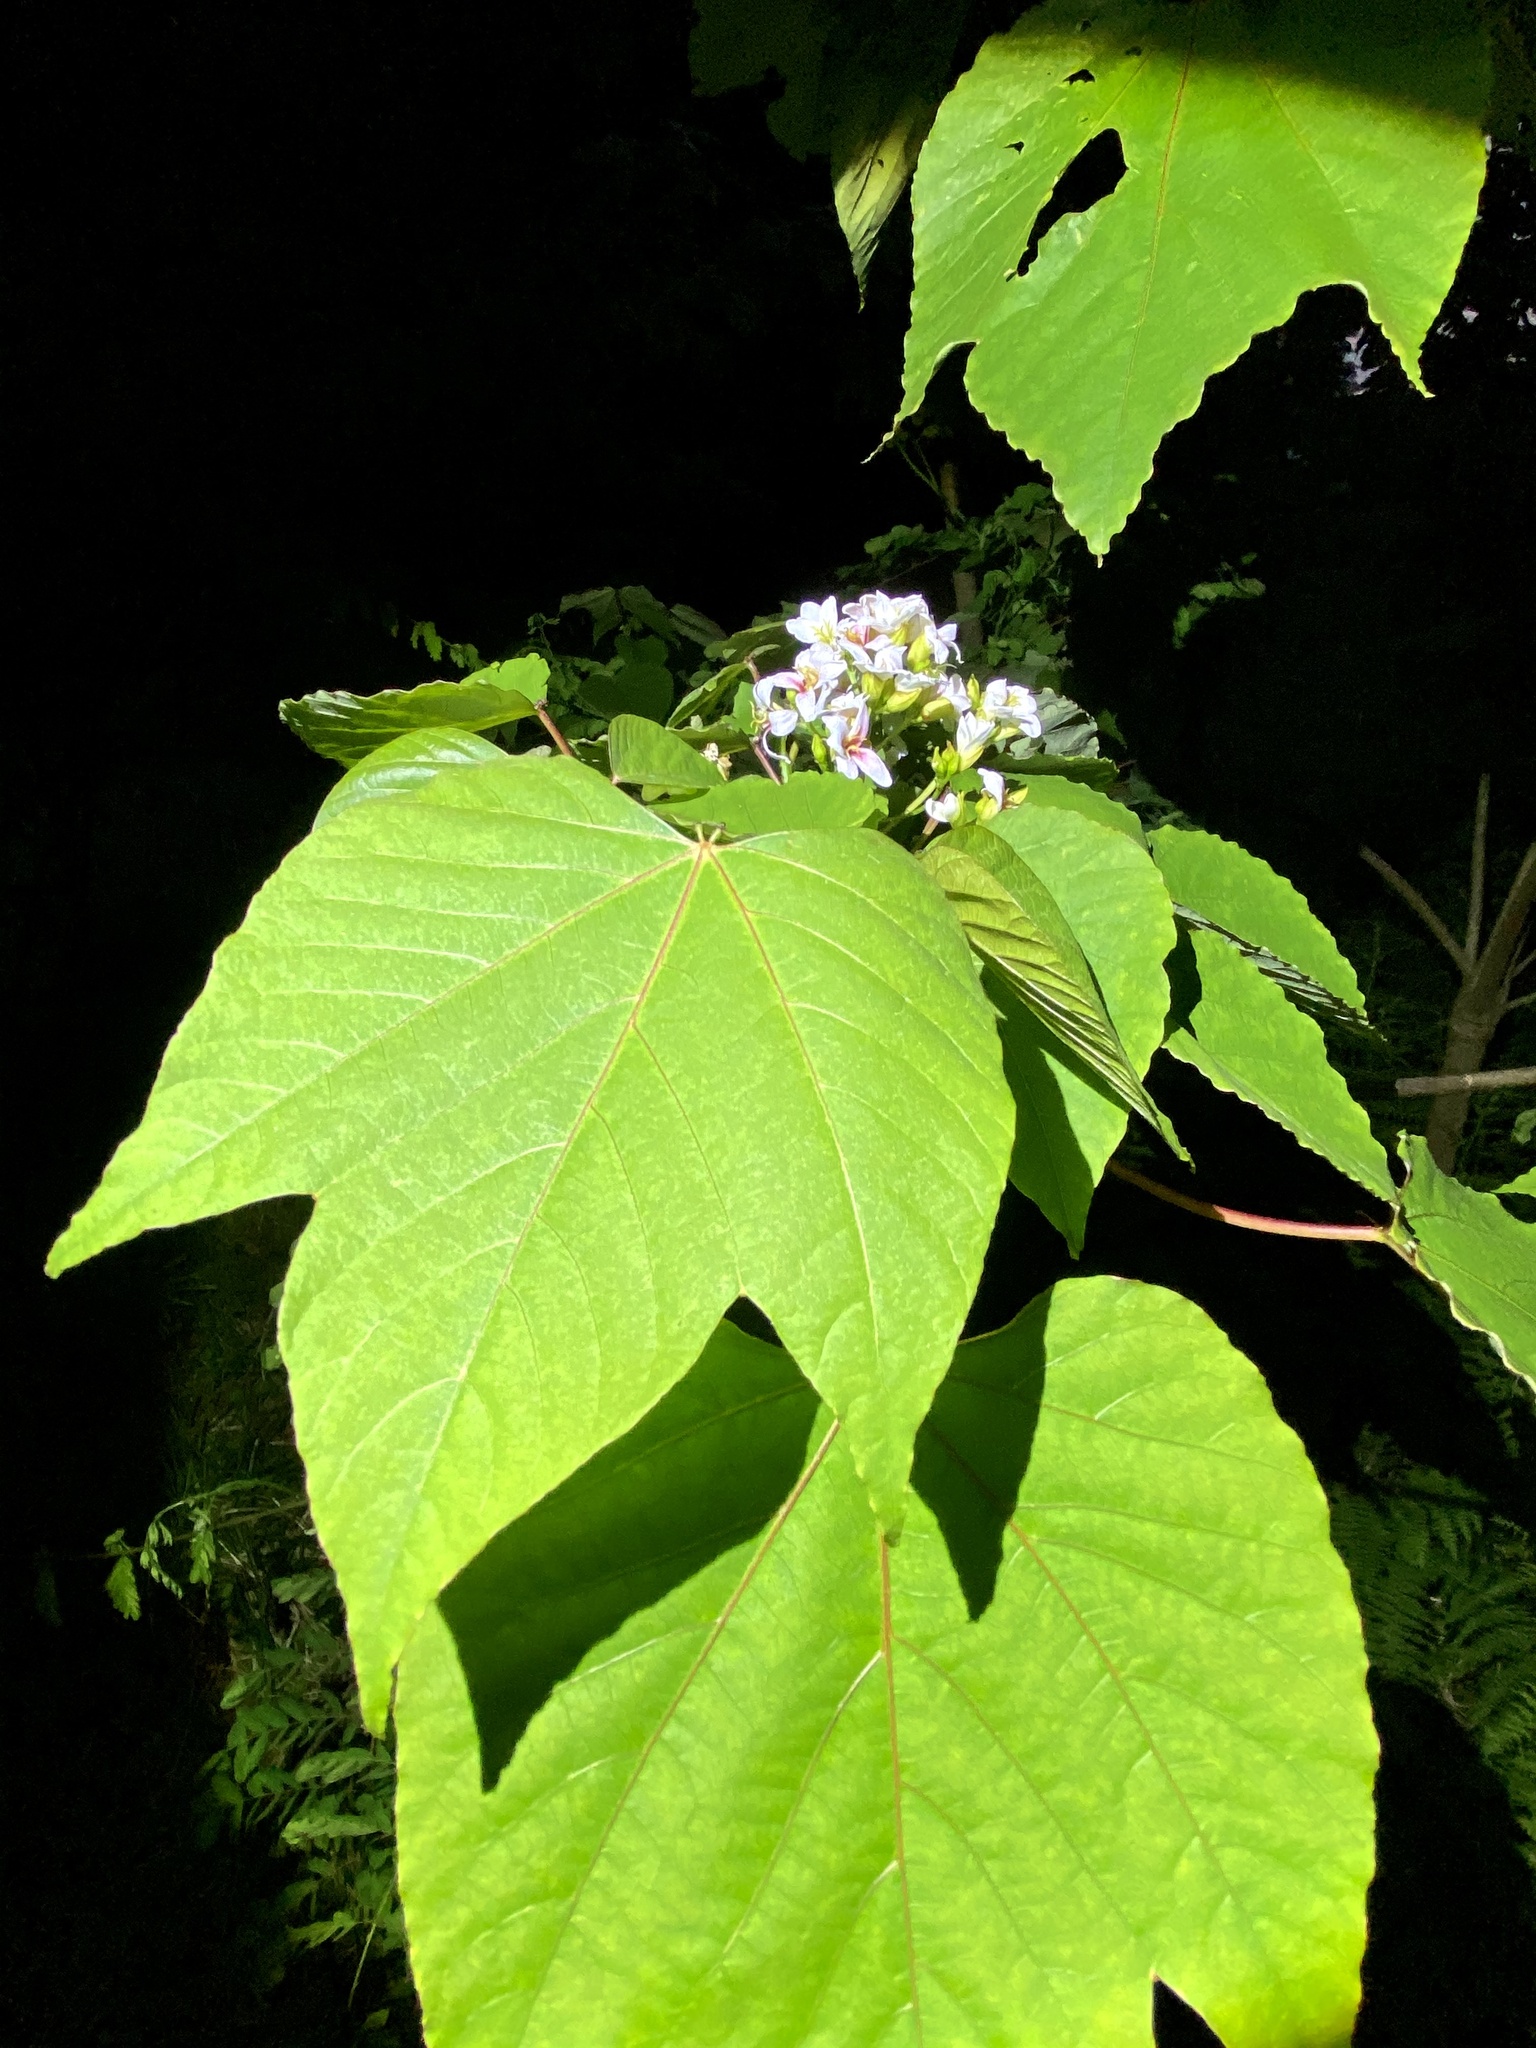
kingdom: Plantae
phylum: Tracheophyta
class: Magnoliopsida
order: Malpighiales
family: Euphorbiaceae
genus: Vernicia
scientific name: Vernicia cordata
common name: Japanese tung-oil-tree
